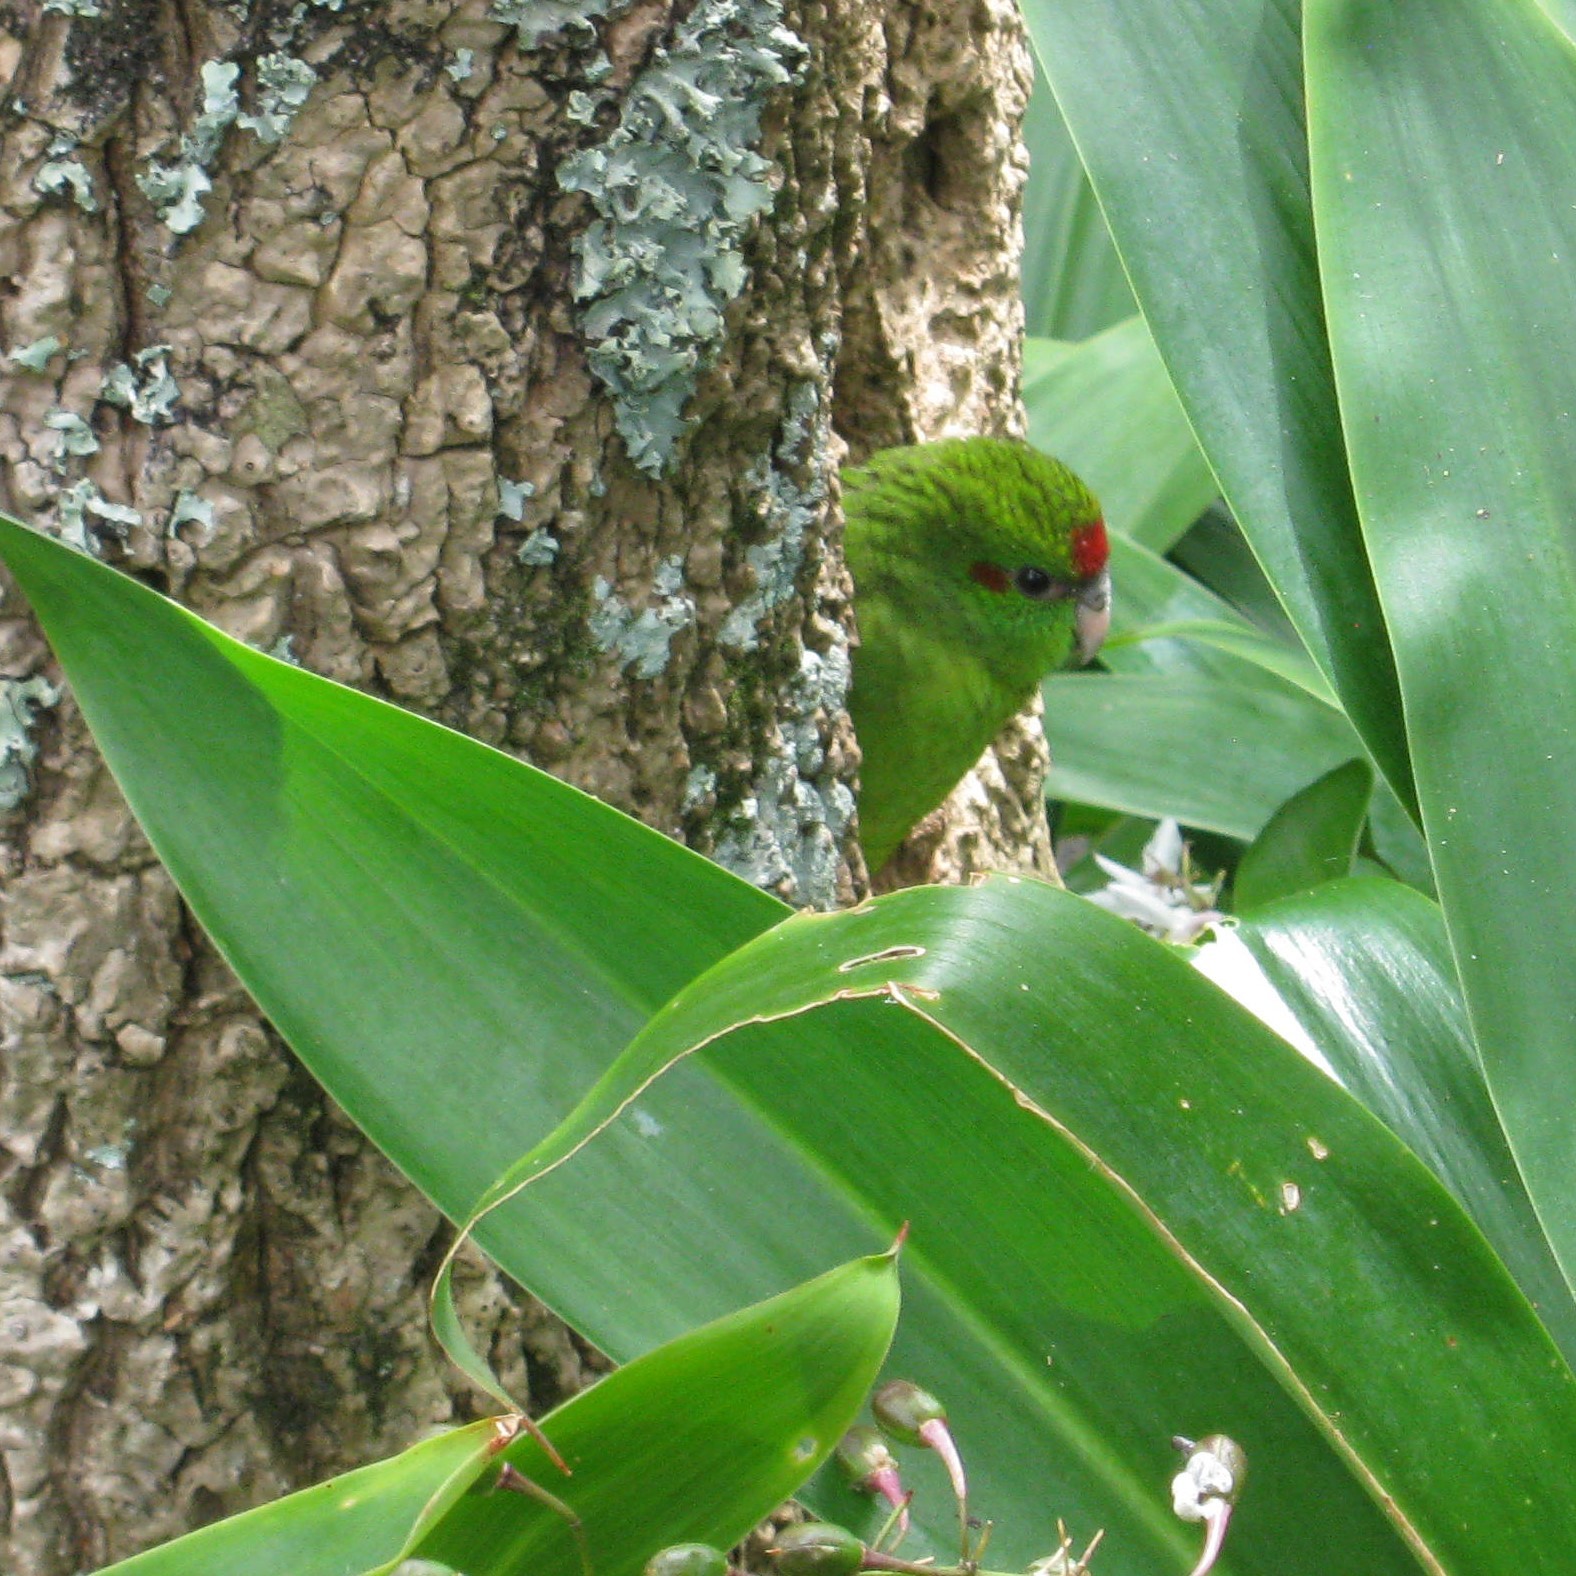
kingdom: Animalia
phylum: Chordata
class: Aves
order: Psittaciformes
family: Psittacidae
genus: Cyanoramphus
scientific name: Cyanoramphus novaezelandiae
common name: Red-fronted parakeet
